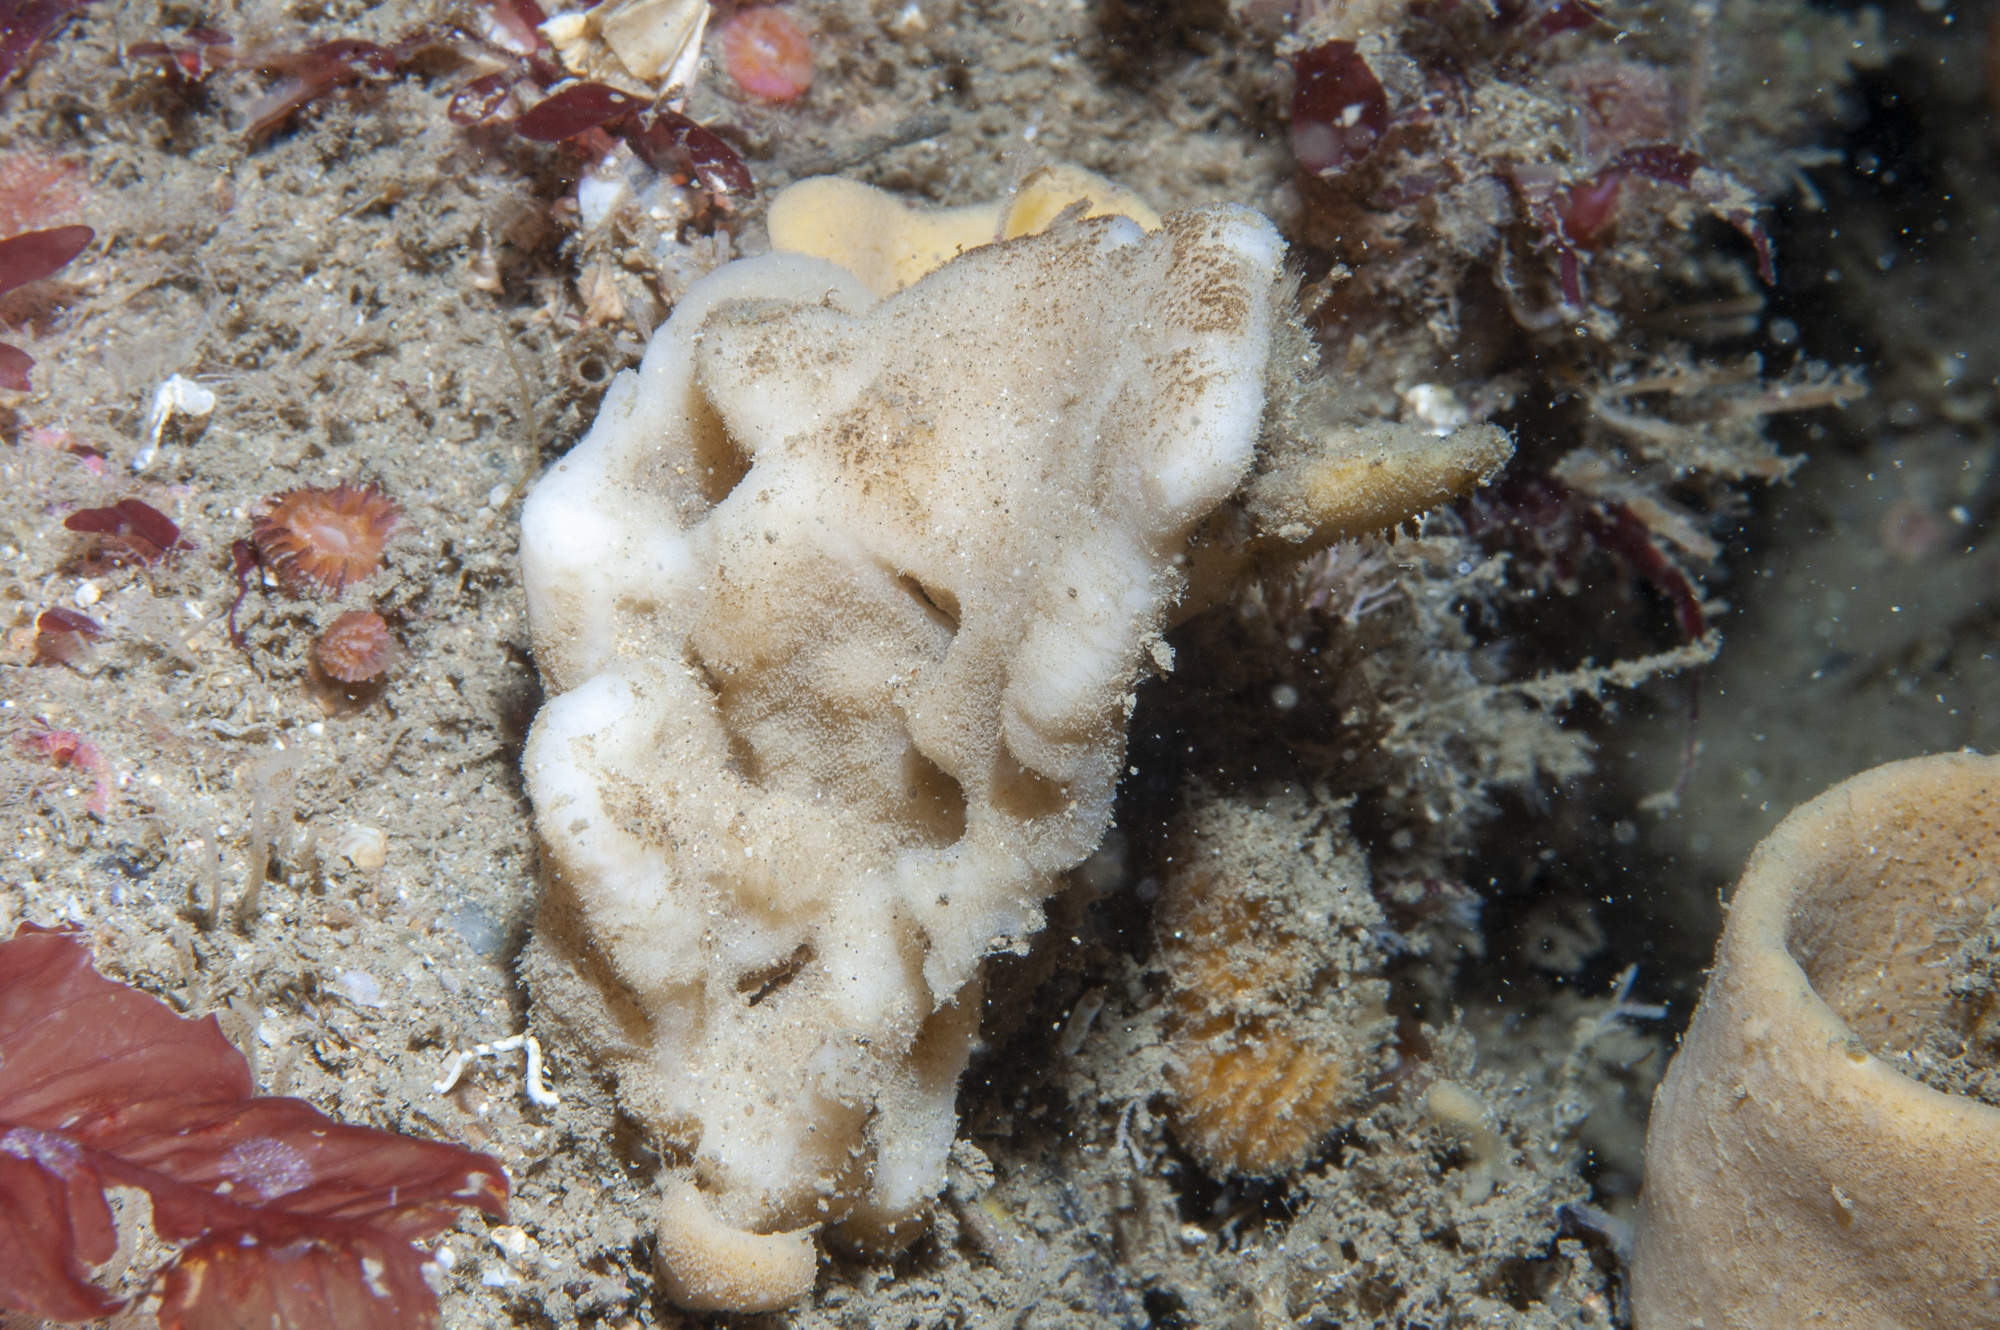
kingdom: Animalia
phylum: Porifera
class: Demospongiae
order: Bubarida
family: Bubaridae
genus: Phakellia
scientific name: Phakellia ventilabrum
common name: Chalice sponge
